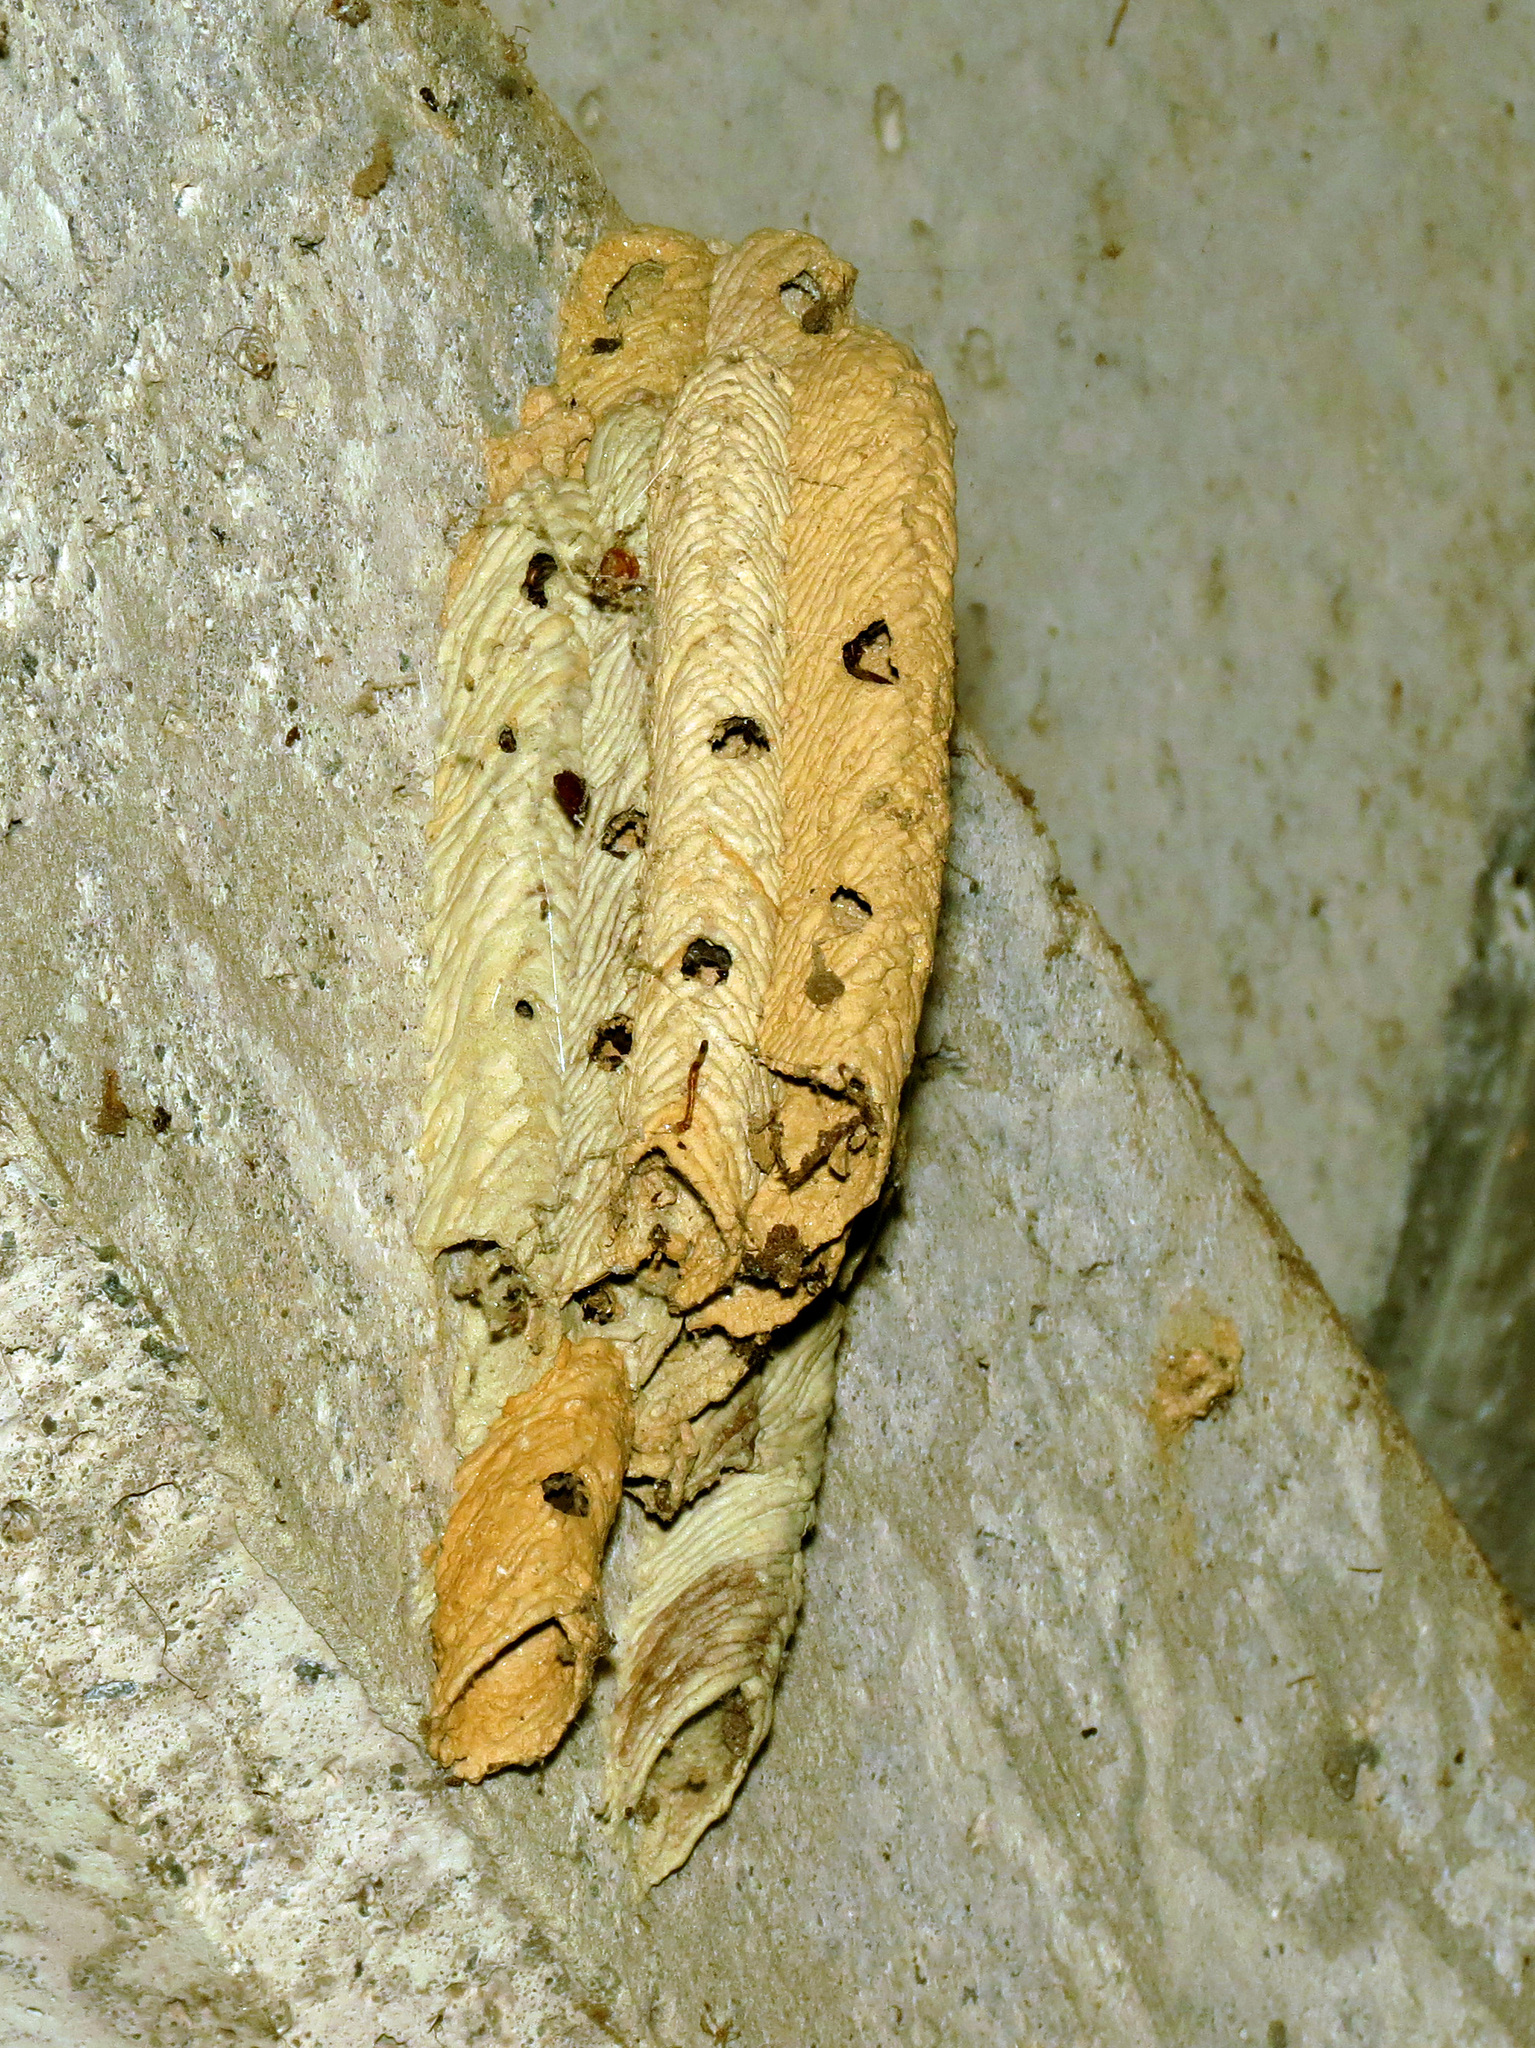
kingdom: Animalia
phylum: Arthropoda
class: Insecta
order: Hymenoptera
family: Crabronidae
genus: Trypoxylon
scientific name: Trypoxylon politum
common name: Organ-pipe mud-dauber wasp
